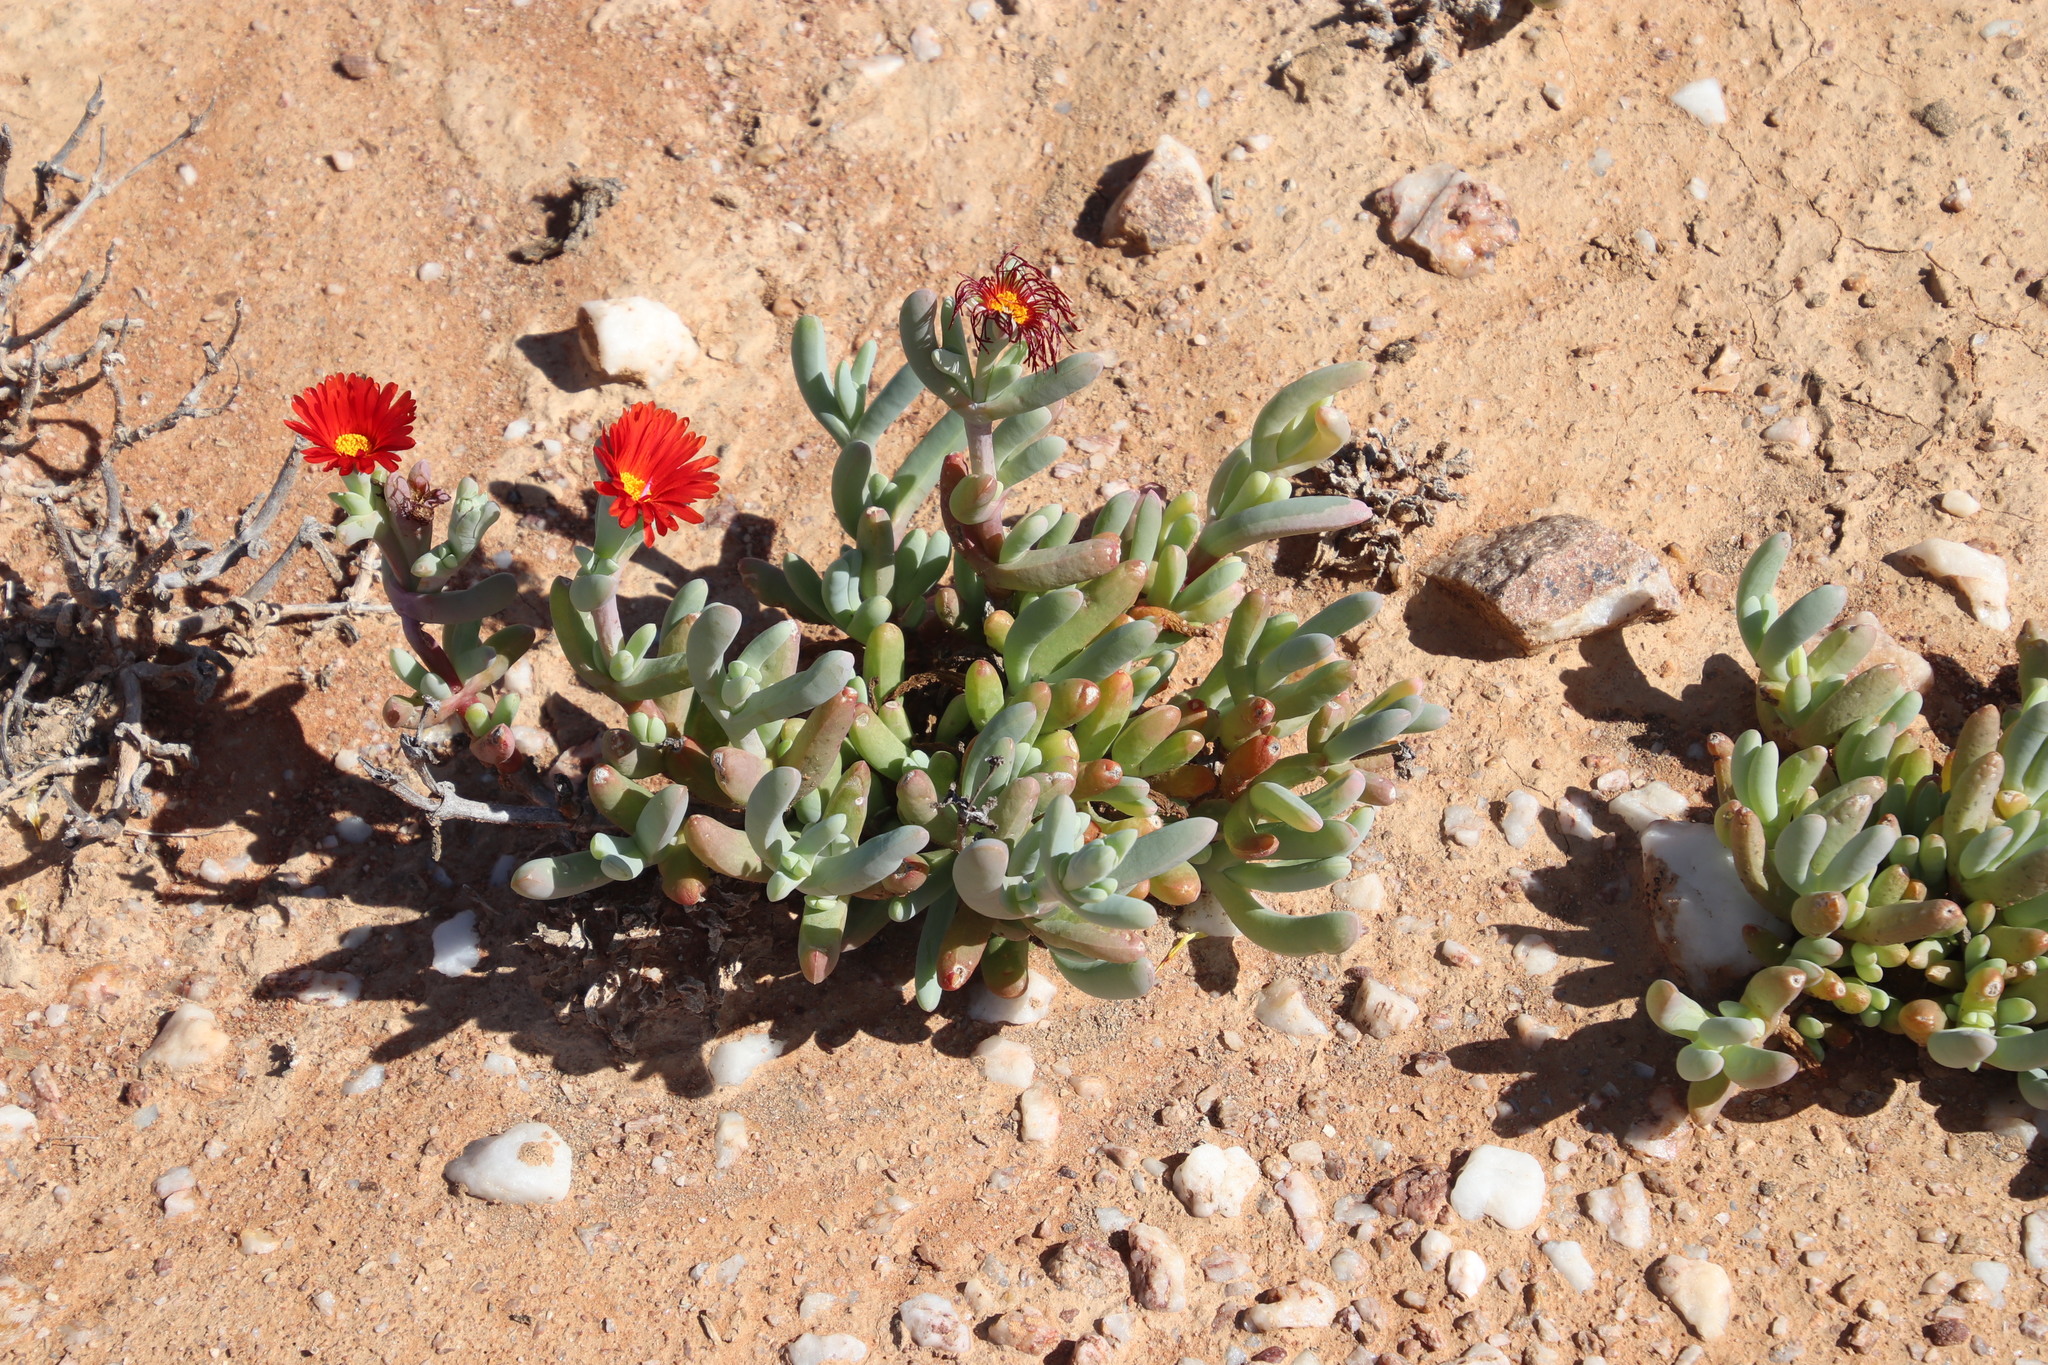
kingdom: Plantae
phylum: Tracheophyta
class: Magnoliopsida
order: Caryophyllales
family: Aizoaceae
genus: Malephora
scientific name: Malephora purpureocrocea
